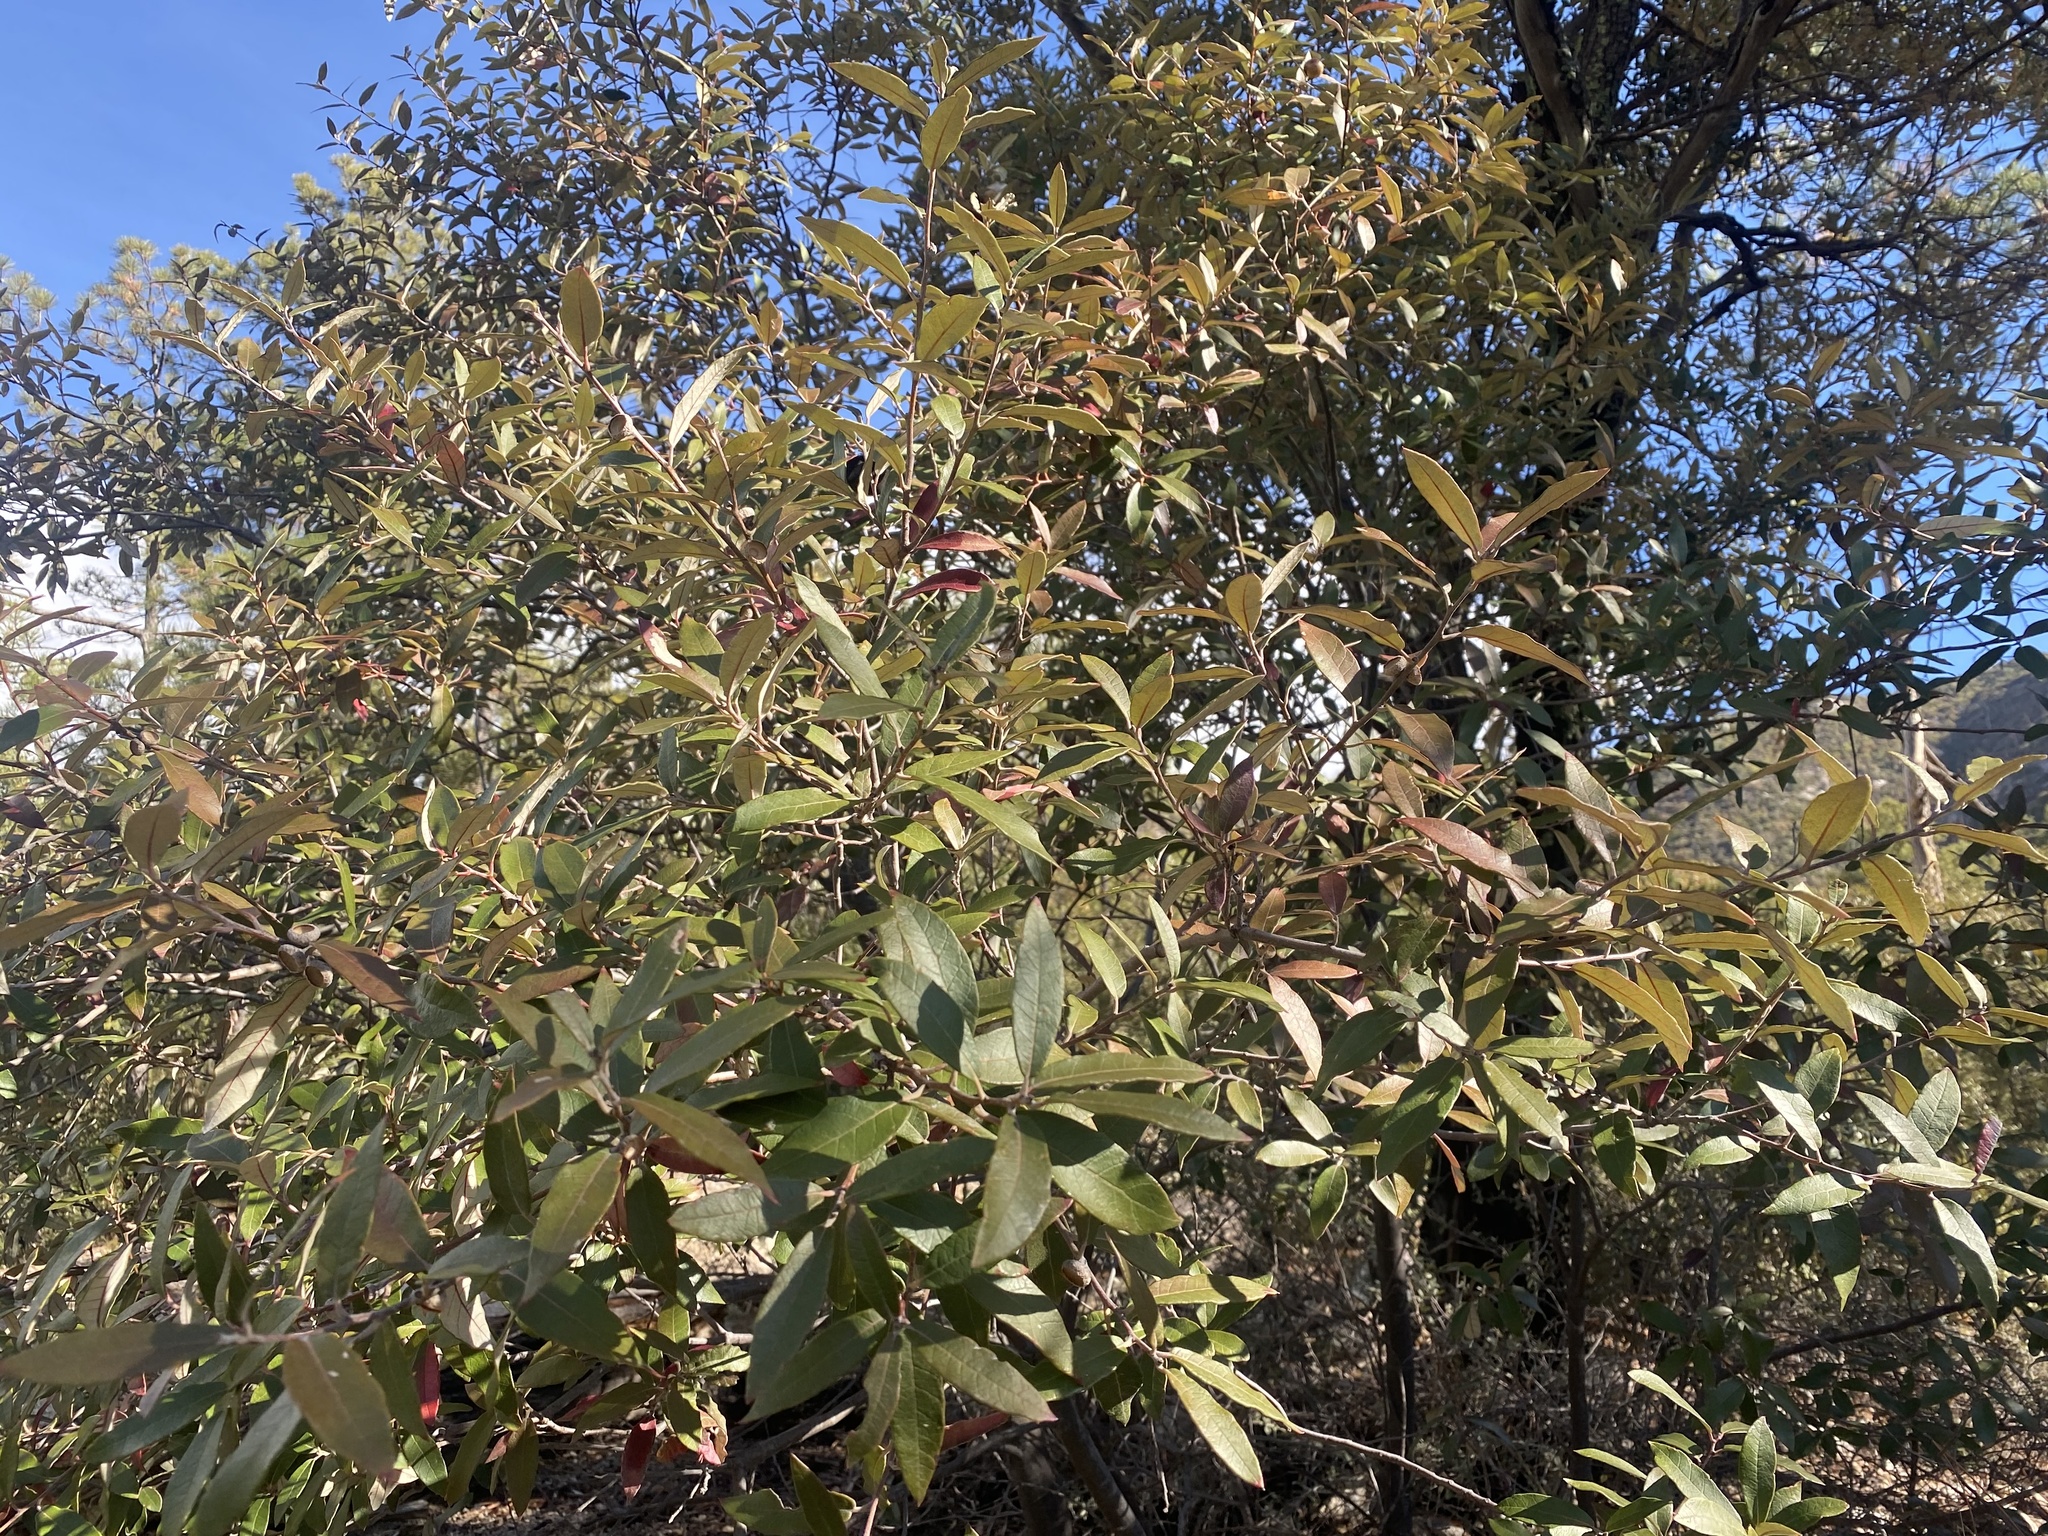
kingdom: Plantae
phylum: Tracheophyta
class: Magnoliopsida
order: Fagales
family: Fagaceae
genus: Quercus
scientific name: Quercus hypoleucoides
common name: Silverleaf oak
